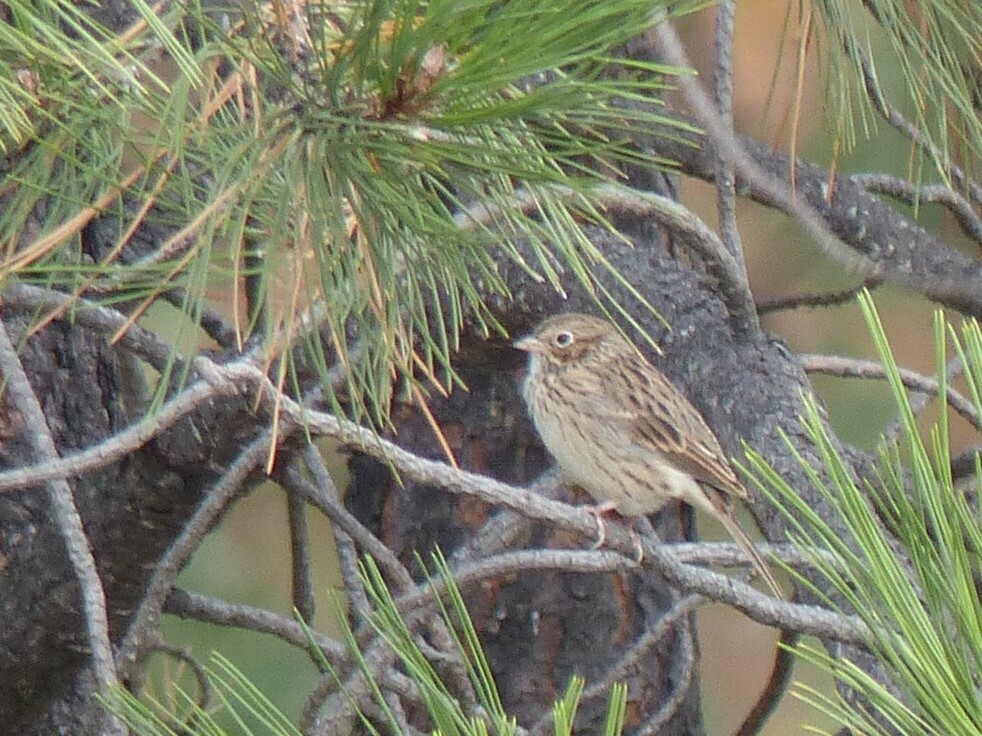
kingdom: Animalia
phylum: Chordata
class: Aves
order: Passeriformes
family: Passerellidae
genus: Pooecetes
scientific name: Pooecetes gramineus
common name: Vesper sparrow
